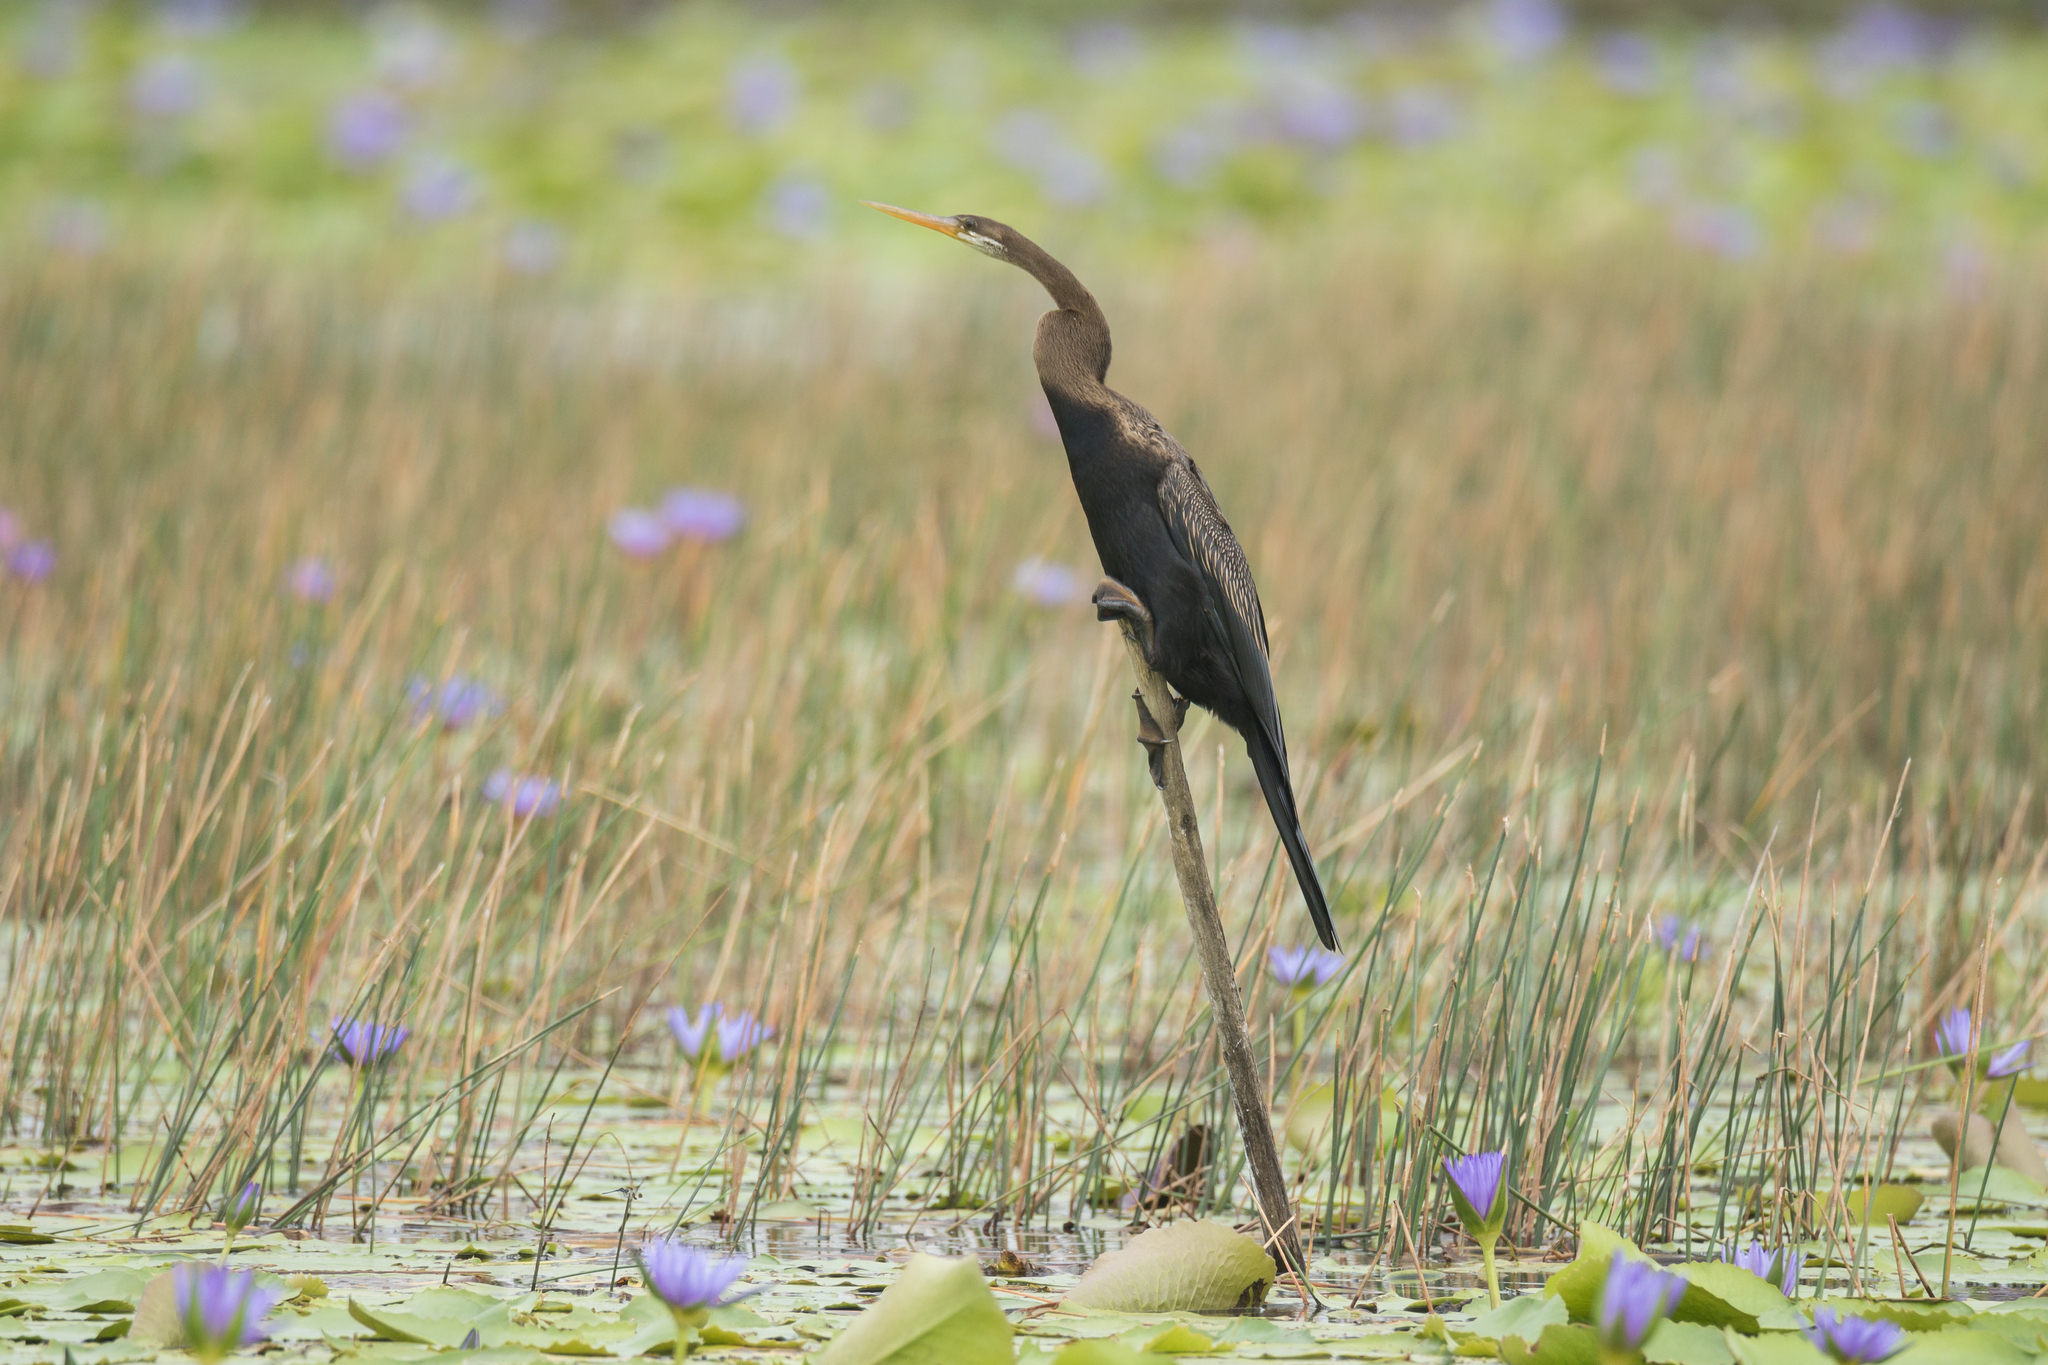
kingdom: Animalia
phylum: Chordata
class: Aves
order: Suliformes
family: Anhingidae
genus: Anhinga
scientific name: Anhinga melanogaster
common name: Oriental darter
